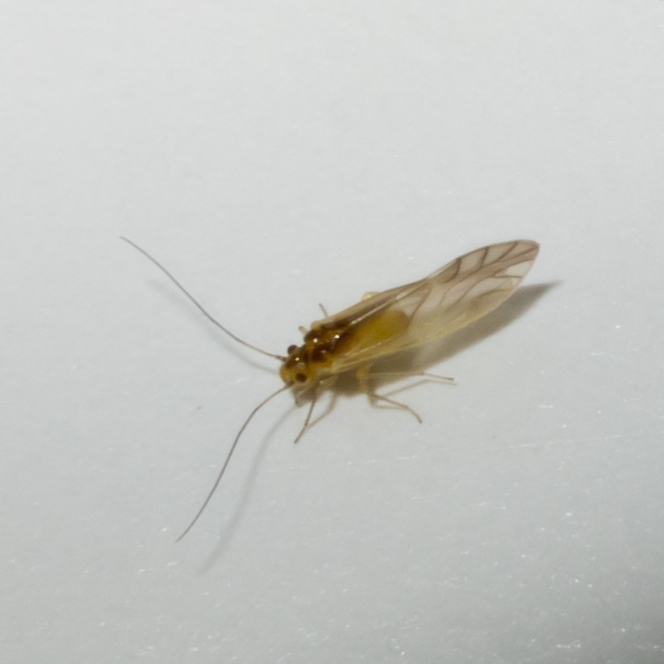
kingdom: Animalia
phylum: Arthropoda
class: Insecta
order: Psocodea
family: Caeciliusidae
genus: Valenzuela
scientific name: Valenzuela flavidus
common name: Yellow barklouse
